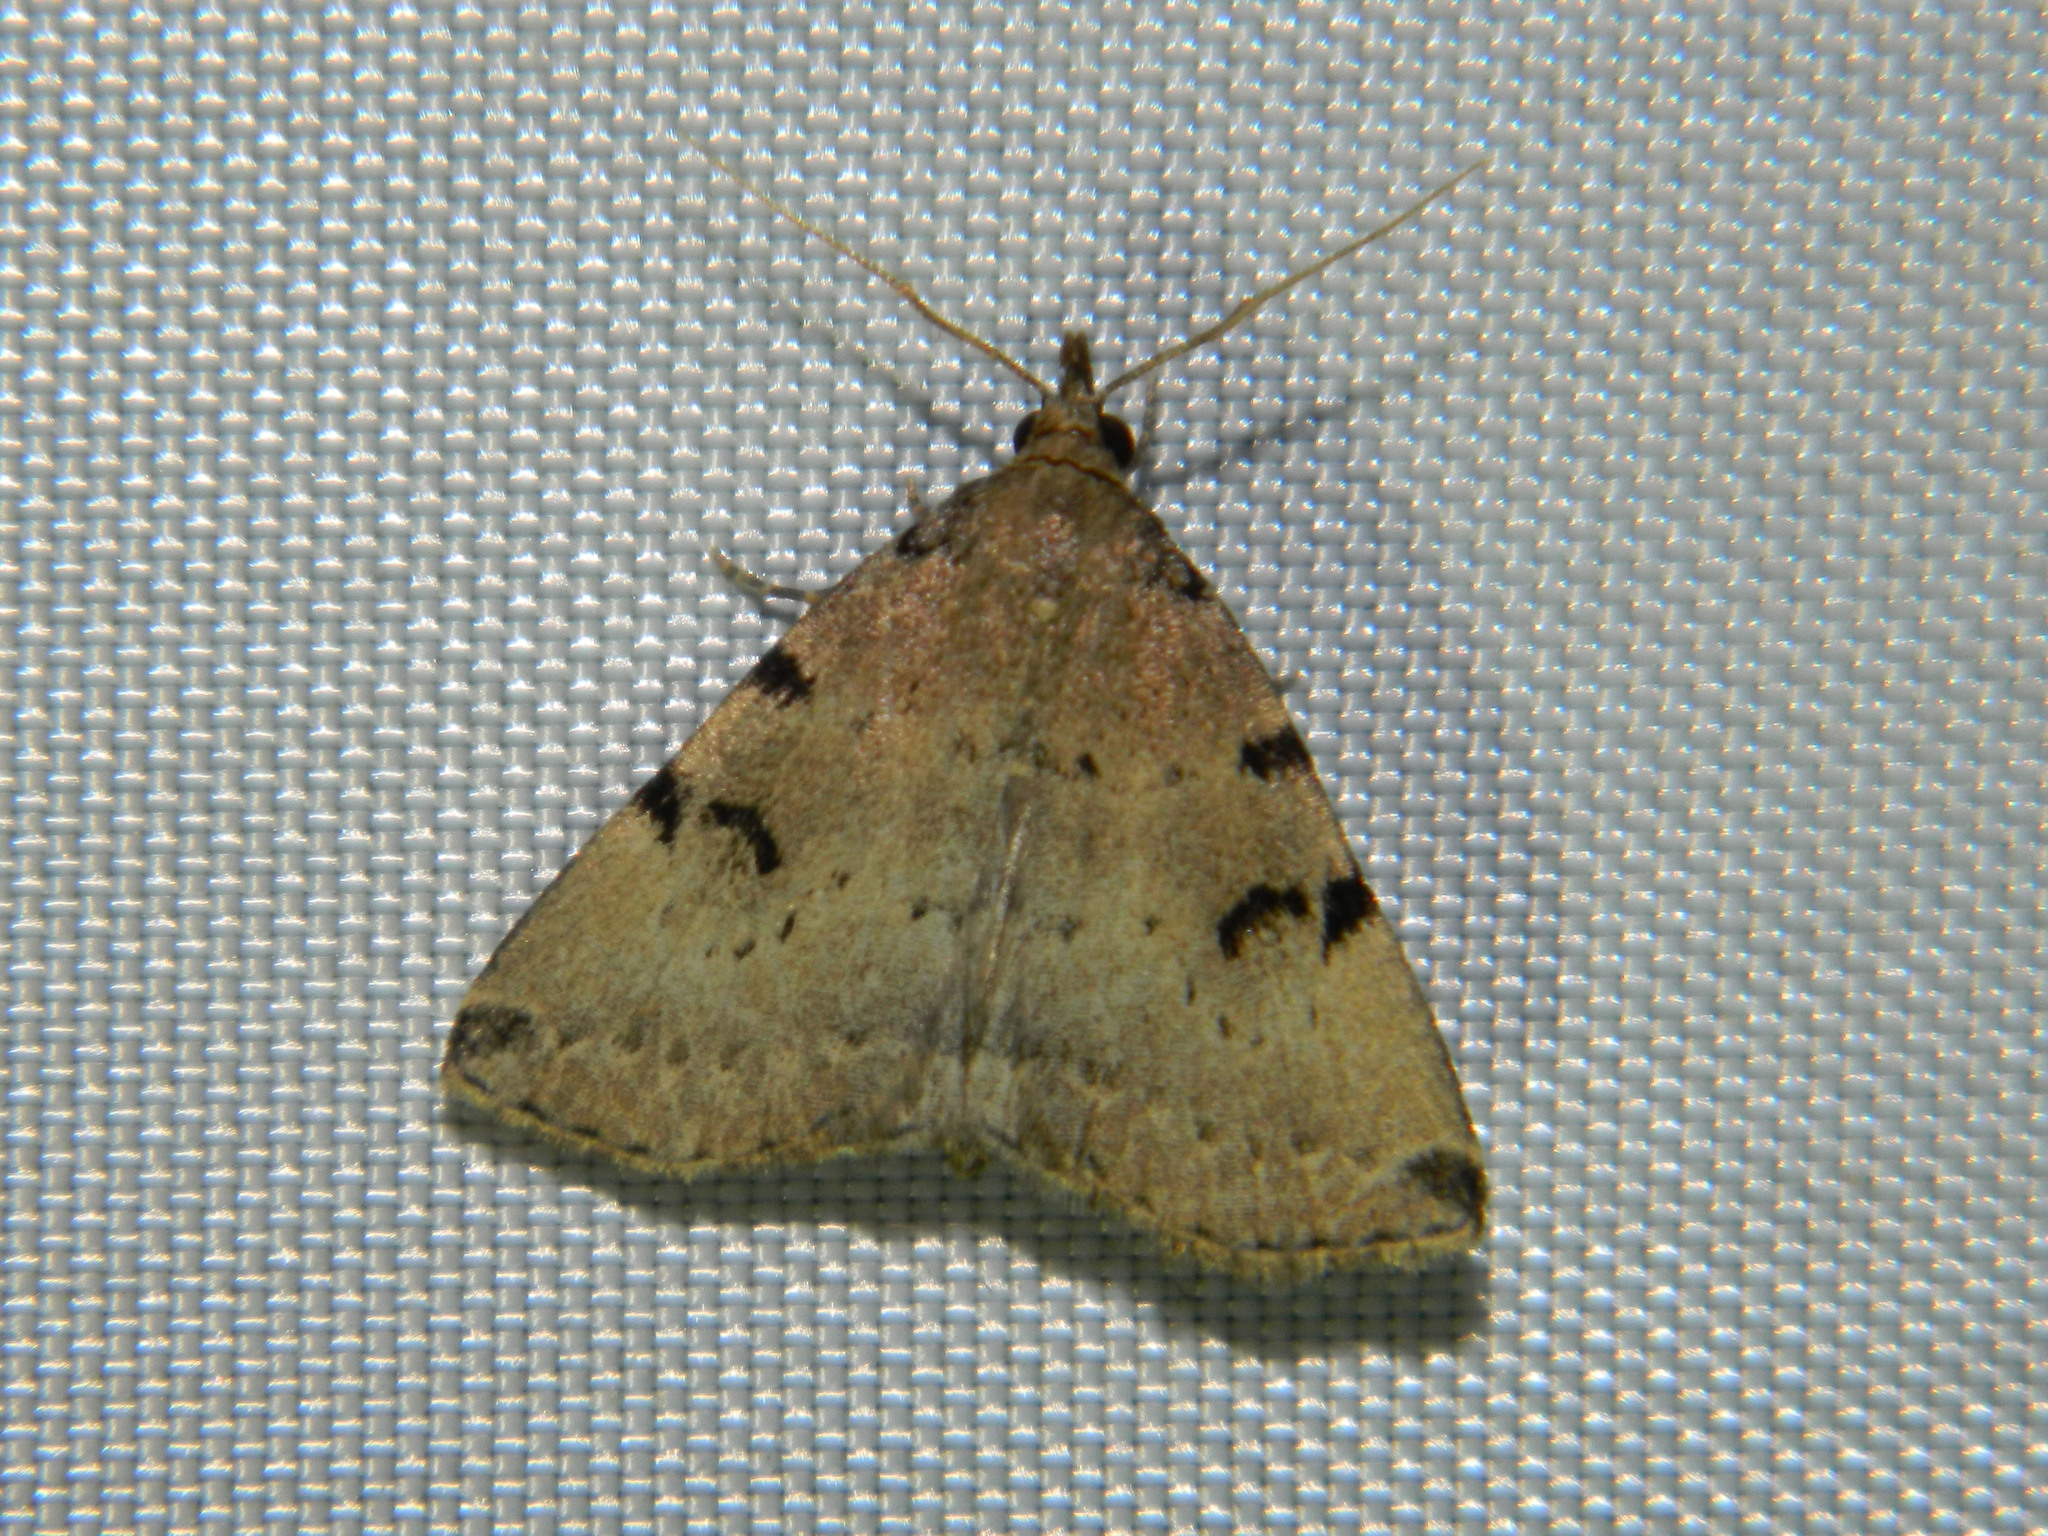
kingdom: Animalia
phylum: Arthropoda
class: Insecta
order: Lepidoptera
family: Erebidae
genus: Zanclognatha
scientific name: Zanclognatha lituralis
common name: Lettered fan-foot
